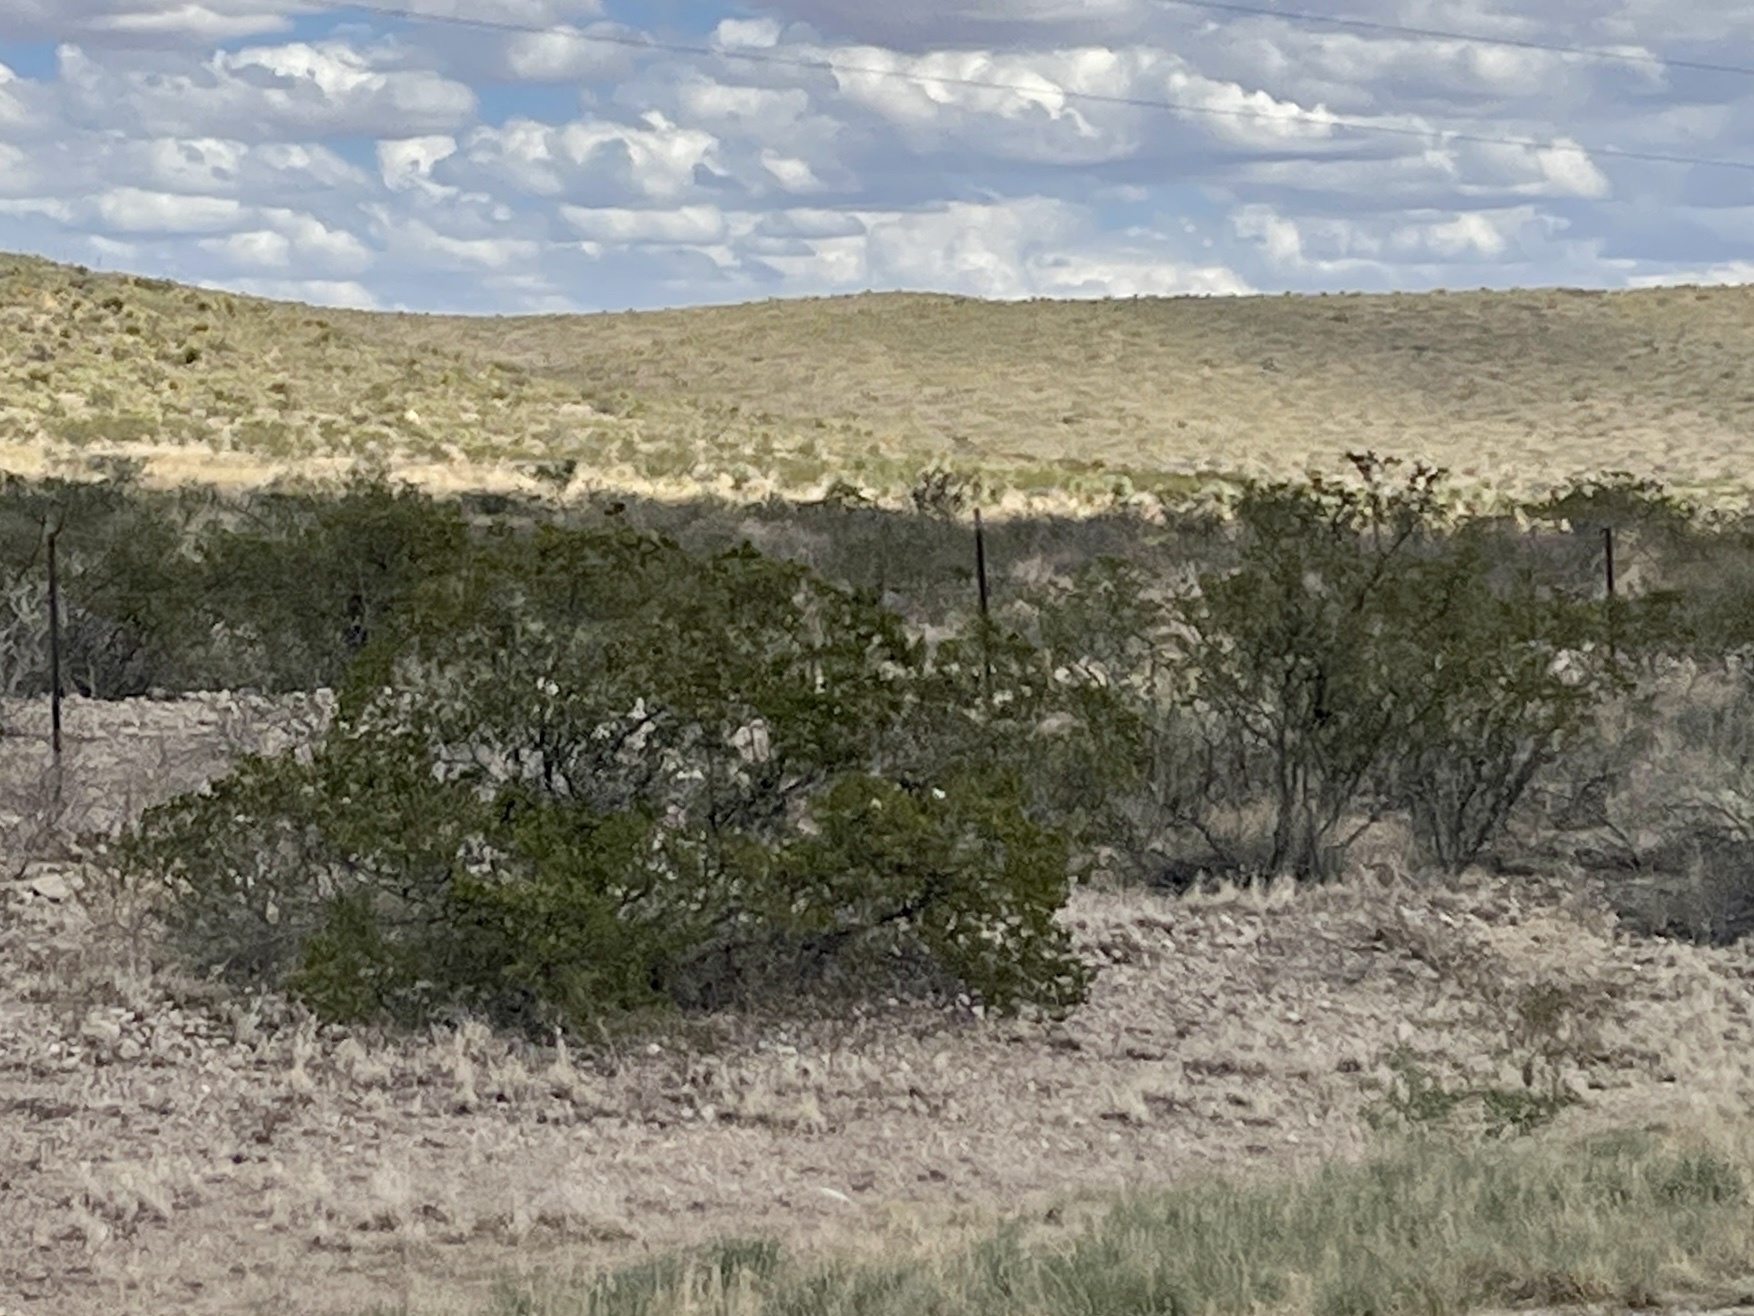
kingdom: Plantae
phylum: Tracheophyta
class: Magnoliopsida
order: Zygophyllales
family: Zygophyllaceae
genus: Larrea
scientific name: Larrea tridentata
